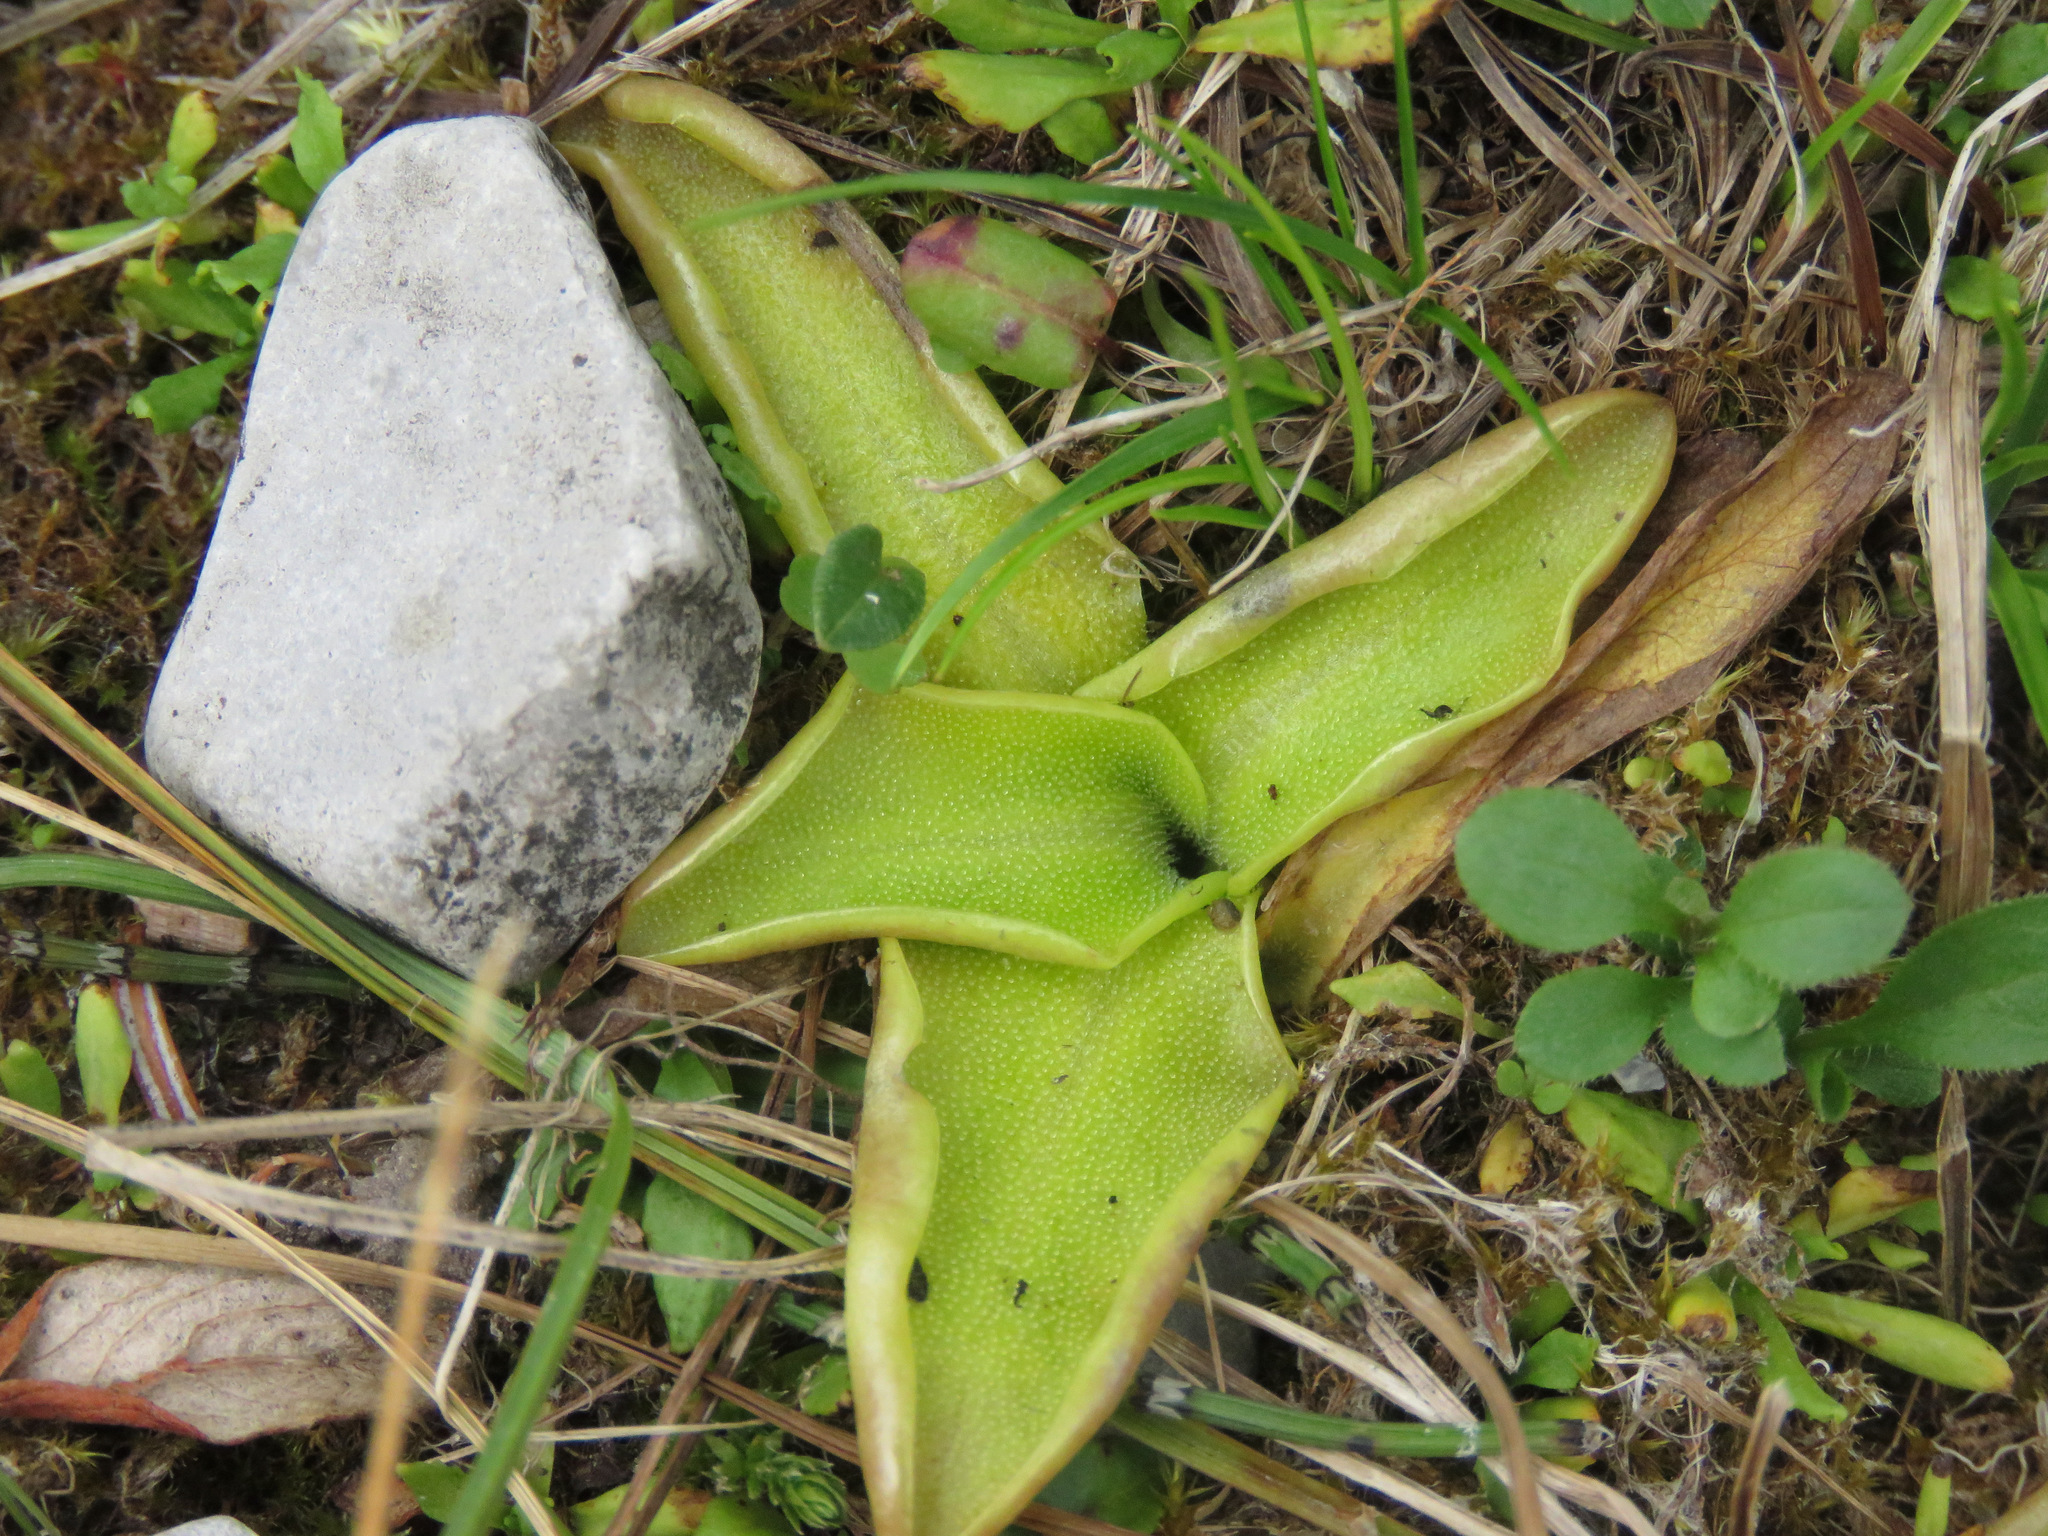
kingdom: Plantae
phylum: Tracheophyta
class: Magnoliopsida
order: Lamiales
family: Lentibulariaceae
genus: Pinguicula
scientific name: Pinguicula vulgaris
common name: Common butterwort
